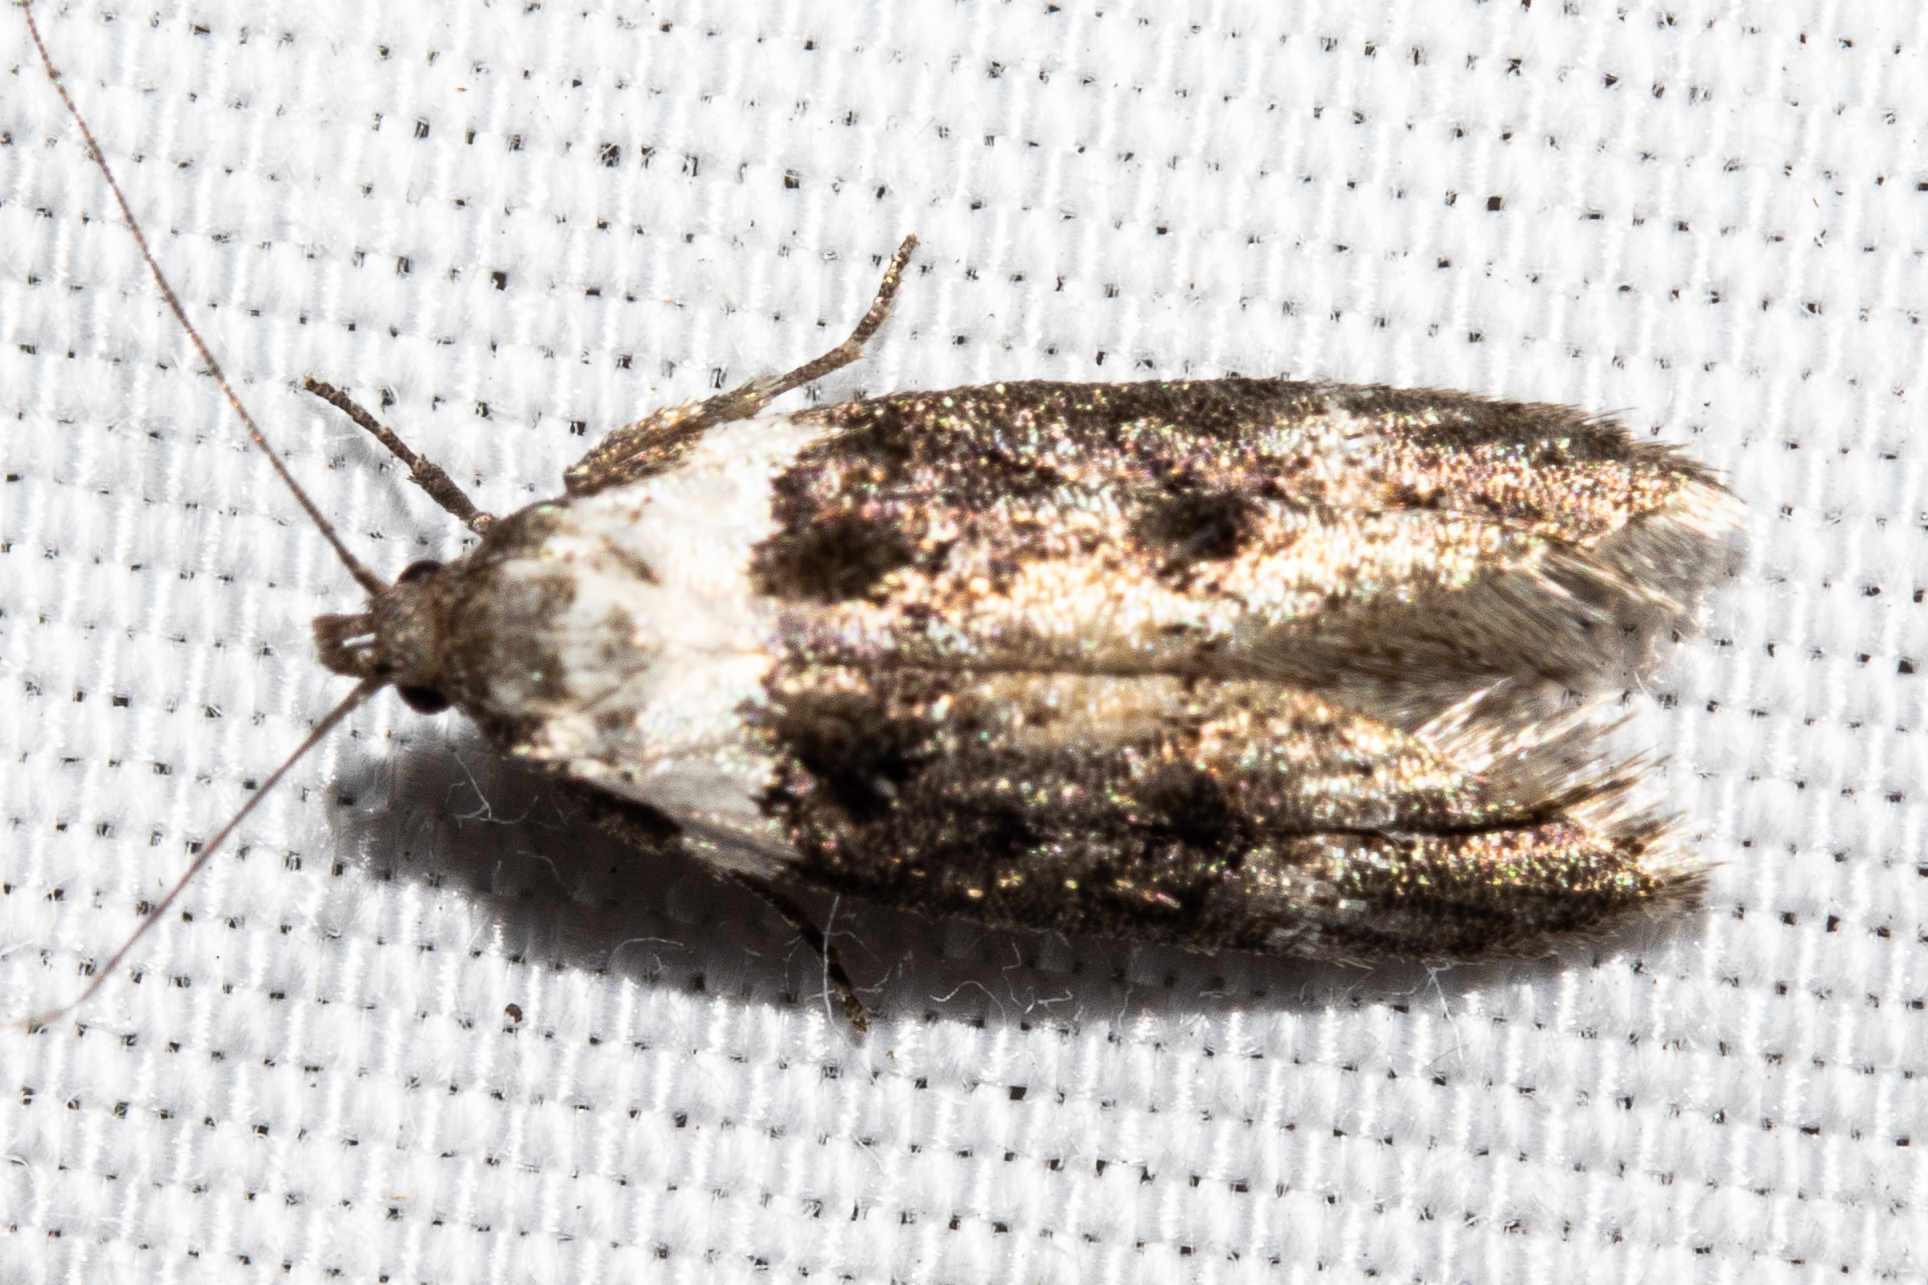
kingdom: Animalia
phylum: Arthropoda
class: Insecta
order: Lepidoptera
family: Oecophoridae
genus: Trachypepla
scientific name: Trachypepla conspicuella
